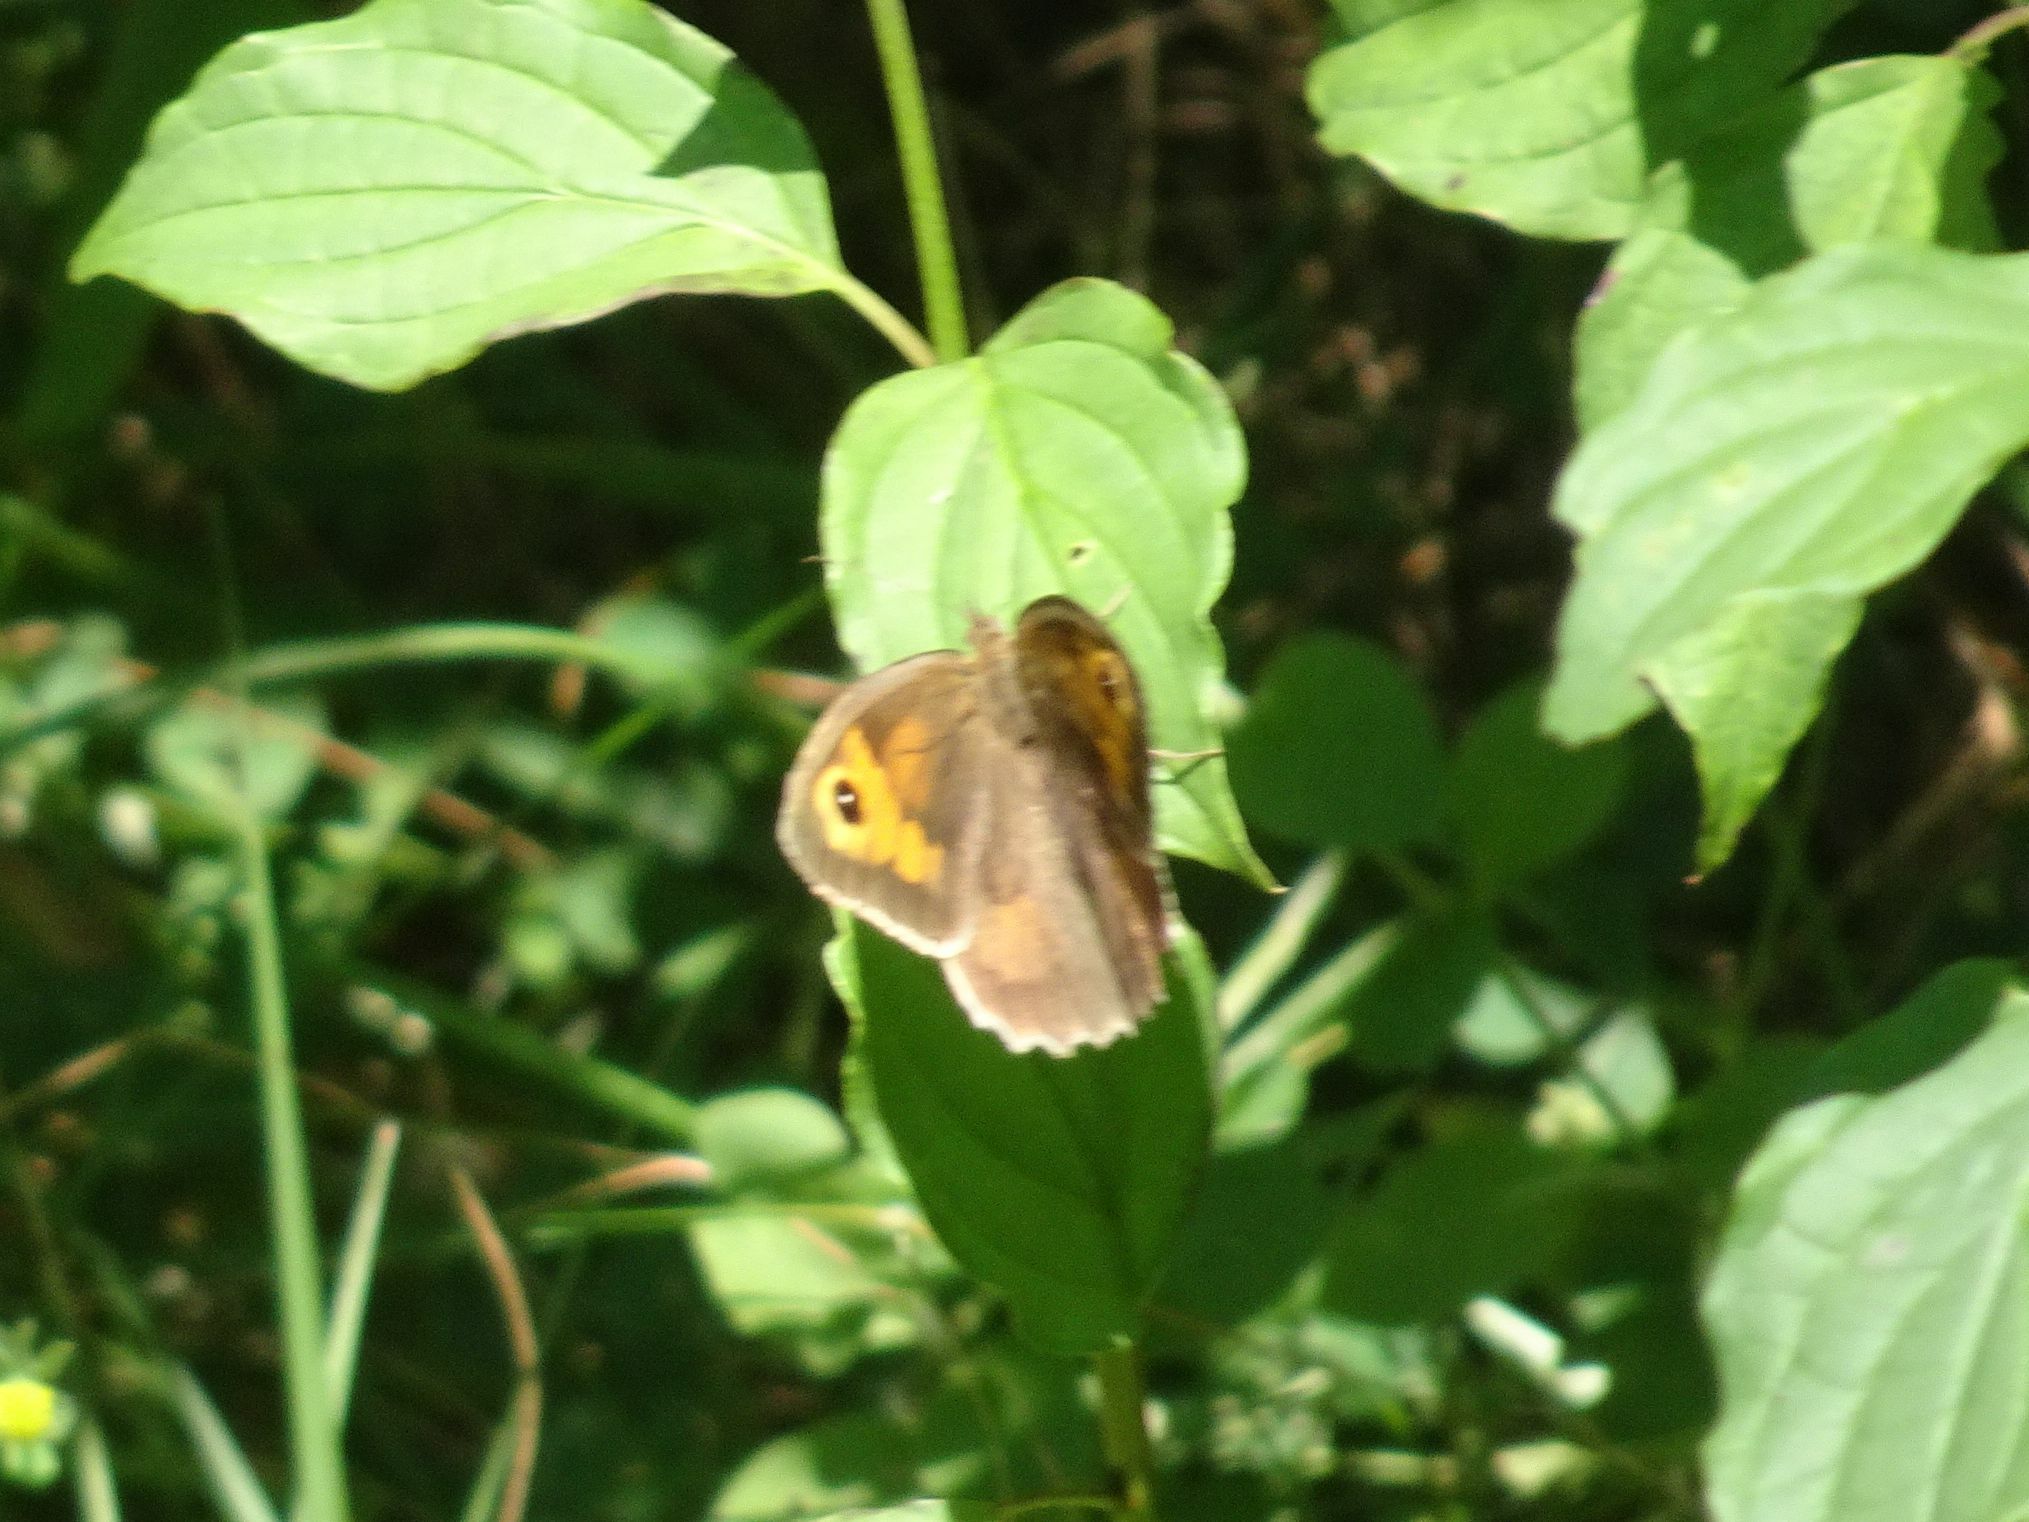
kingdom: Animalia
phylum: Arthropoda
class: Insecta
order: Lepidoptera
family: Nymphalidae
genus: Maniola
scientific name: Maniola jurtina
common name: Meadow brown
